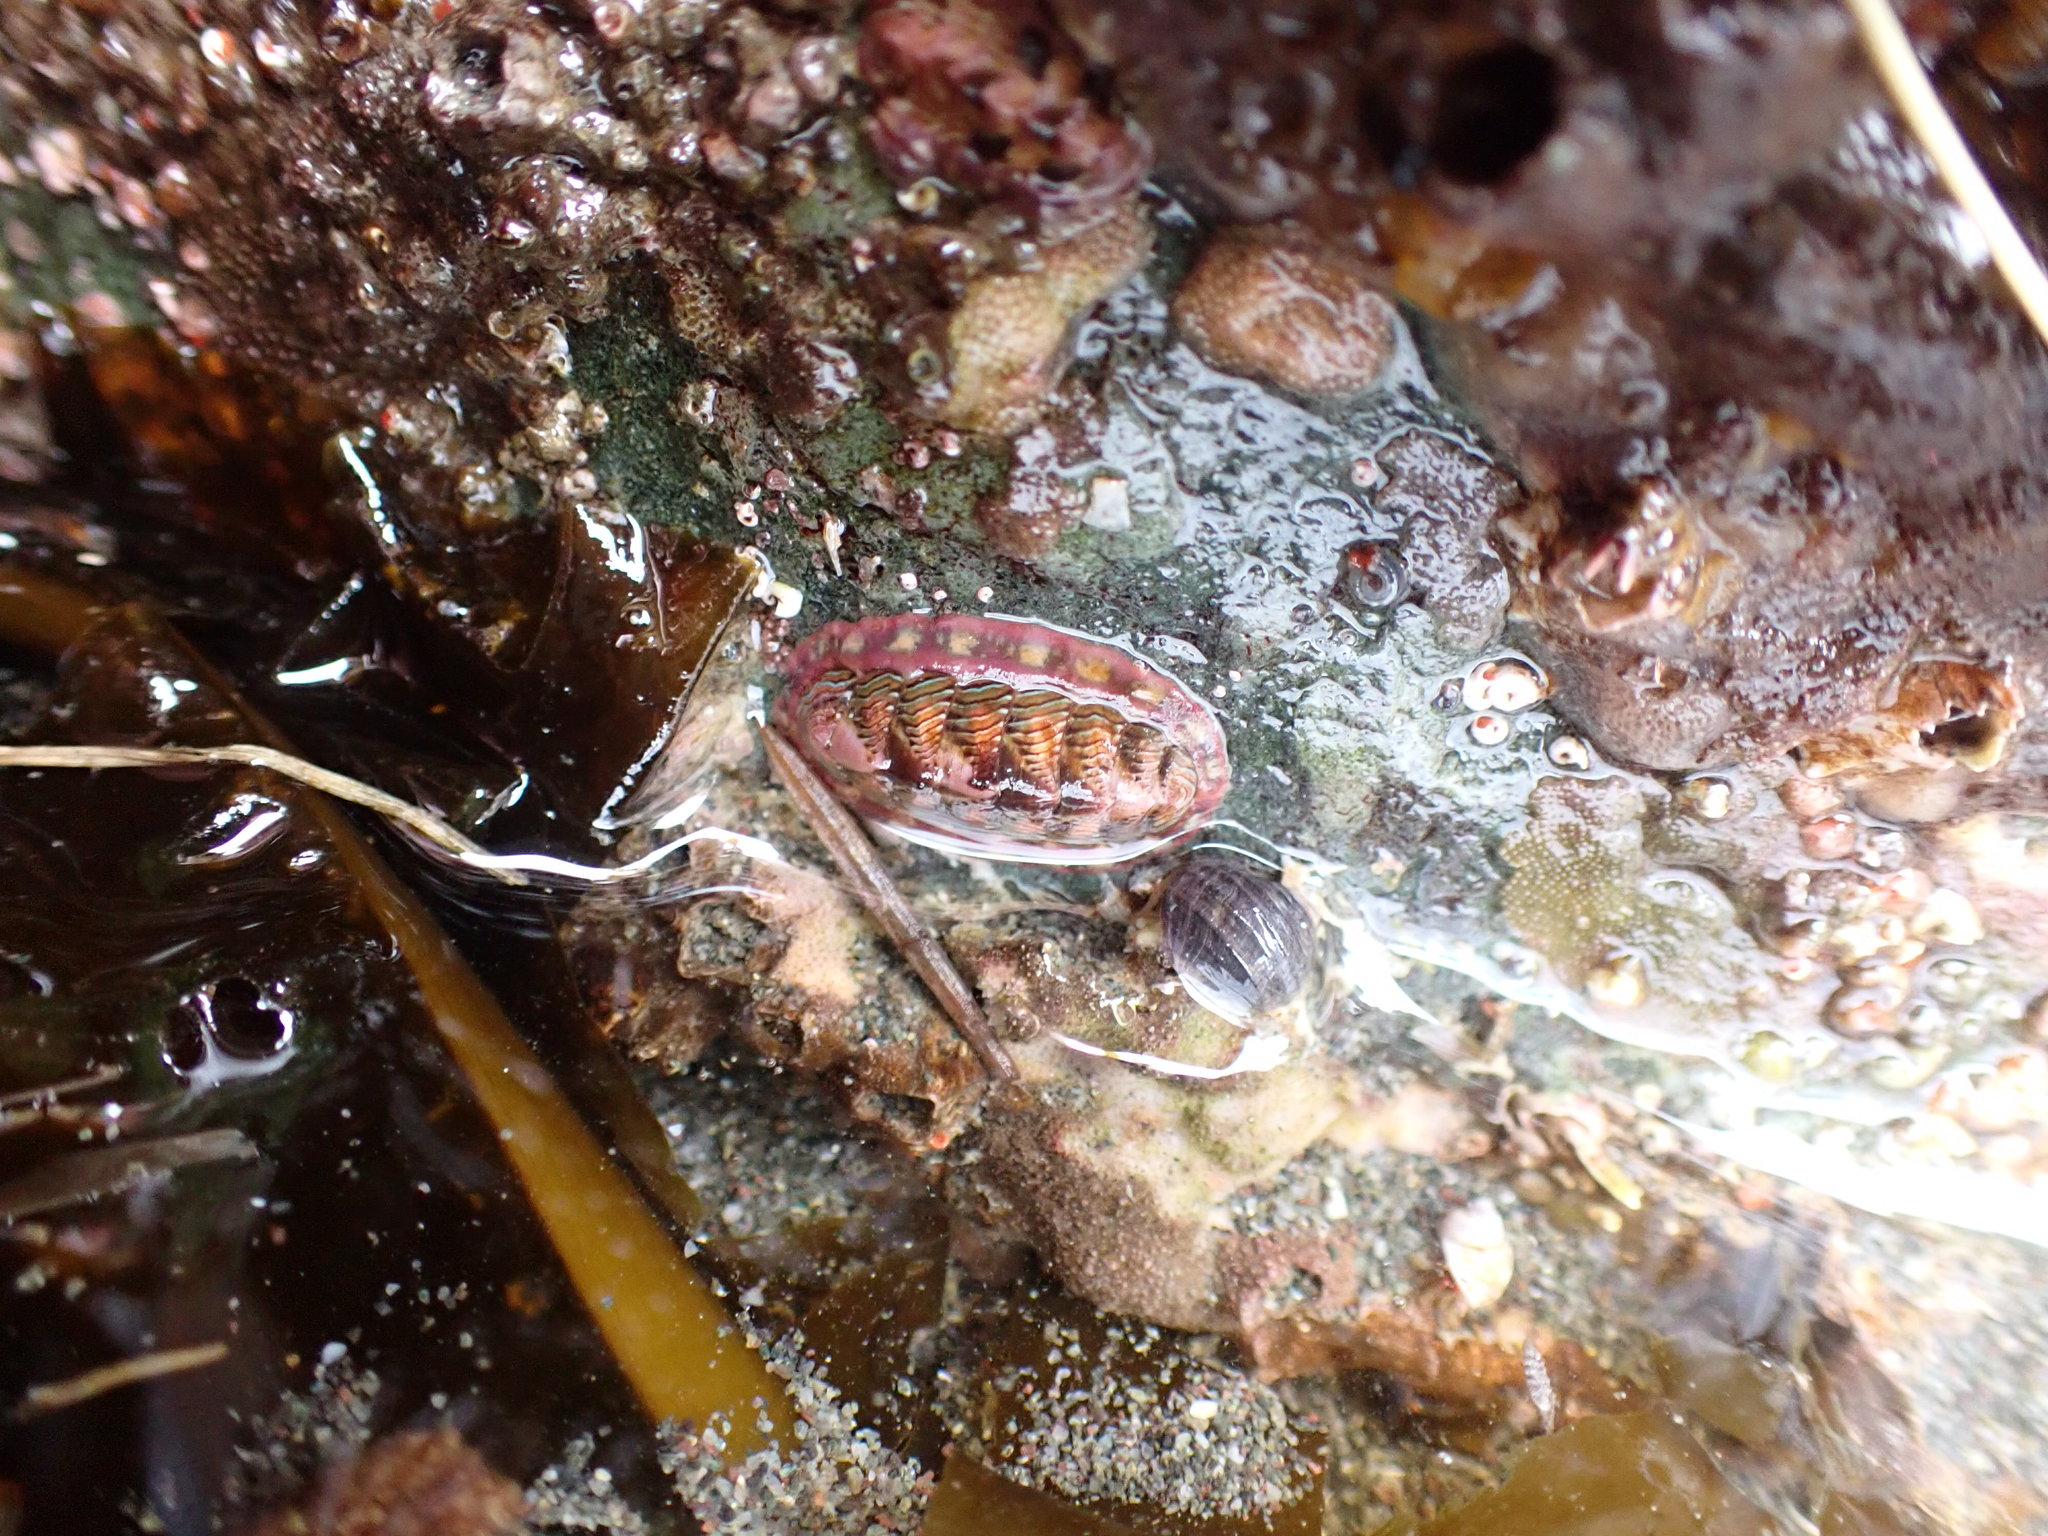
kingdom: Animalia
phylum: Mollusca
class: Polyplacophora
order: Chitonida
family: Tonicellidae
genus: Tonicella
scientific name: Tonicella lineata
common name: Lined chiton
